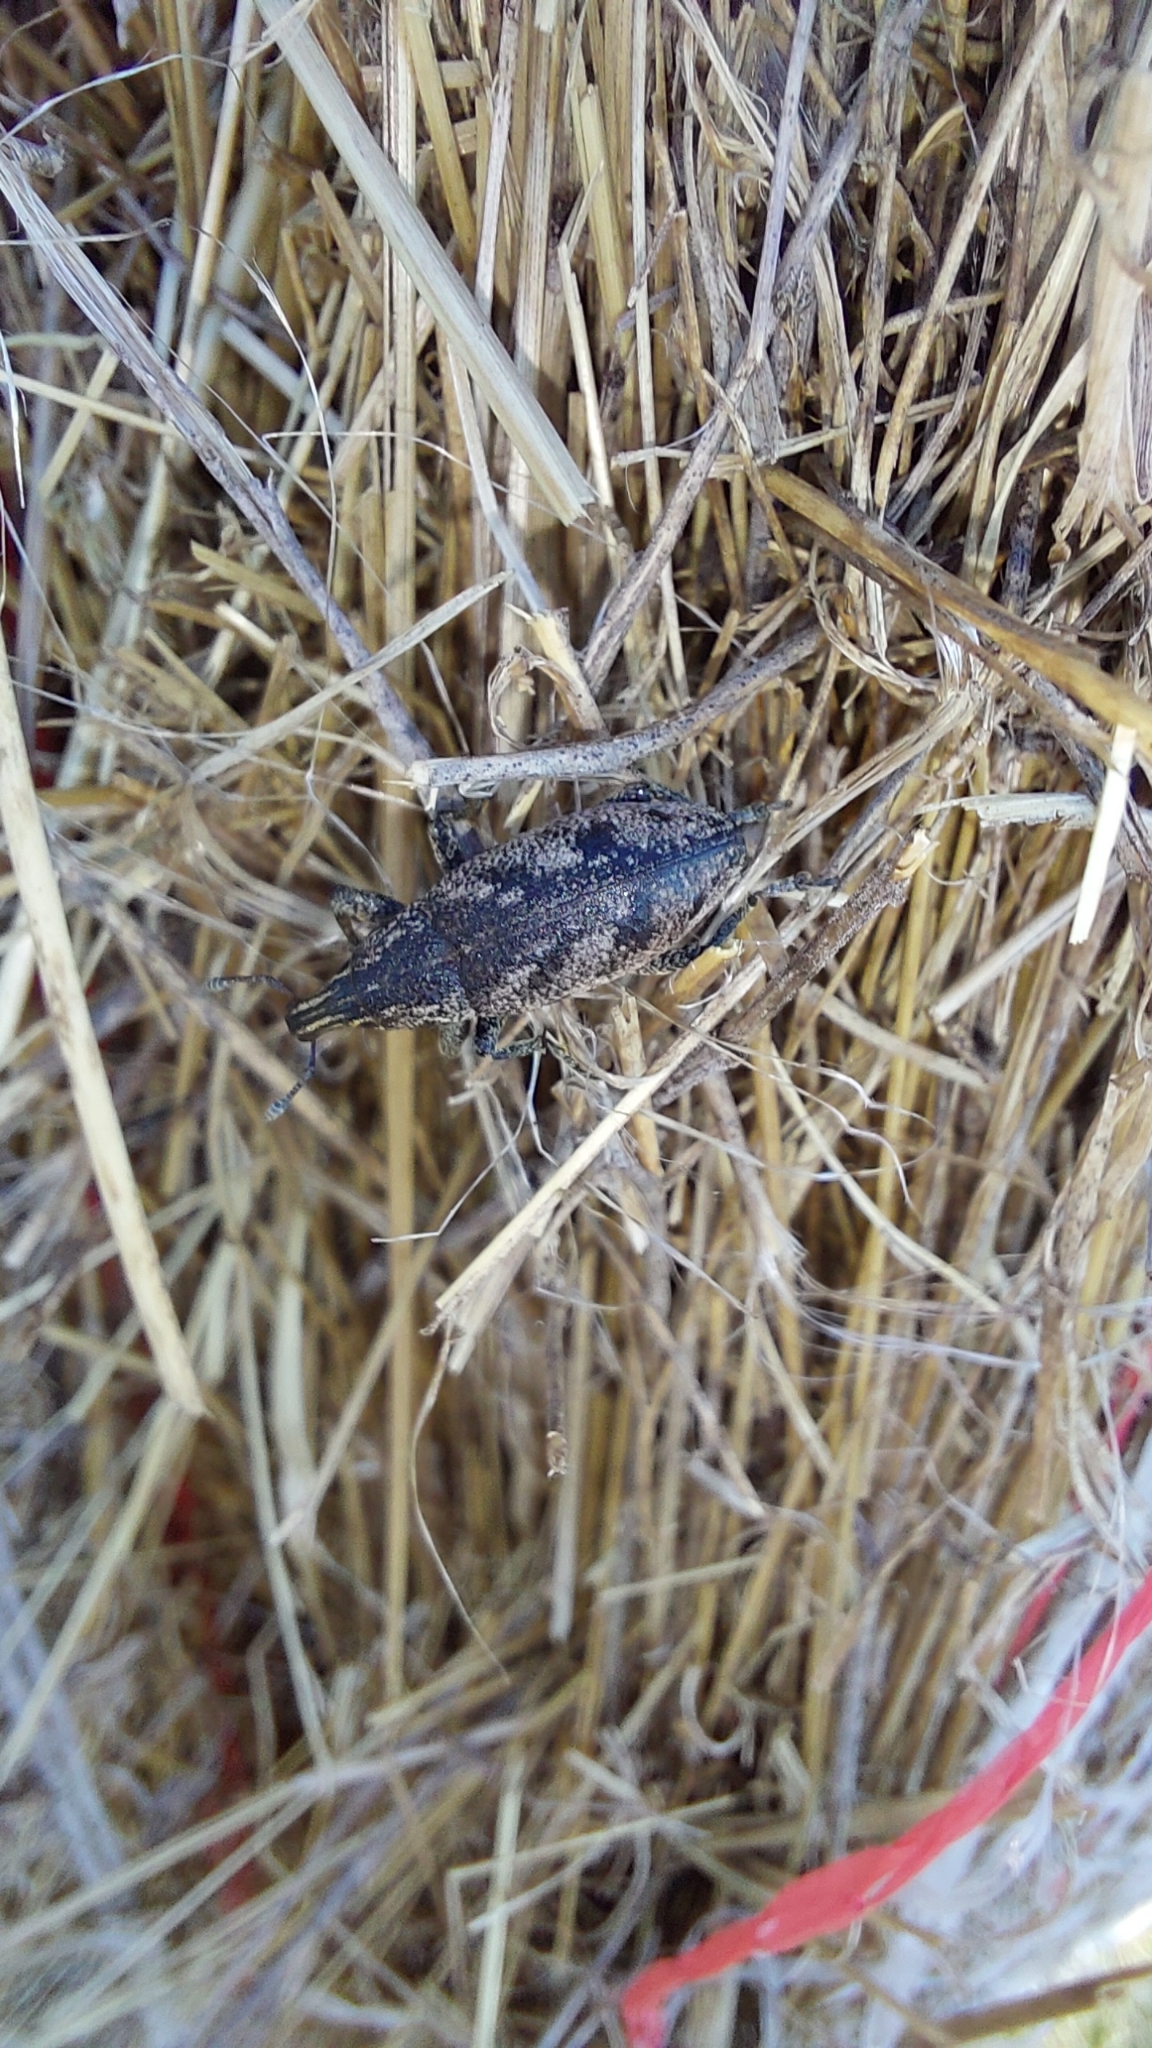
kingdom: Animalia
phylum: Arthropoda
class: Insecta
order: Coleoptera
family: Curculionidae
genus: Cleonis
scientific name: Cleonis pigra
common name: Large thistle weevil
